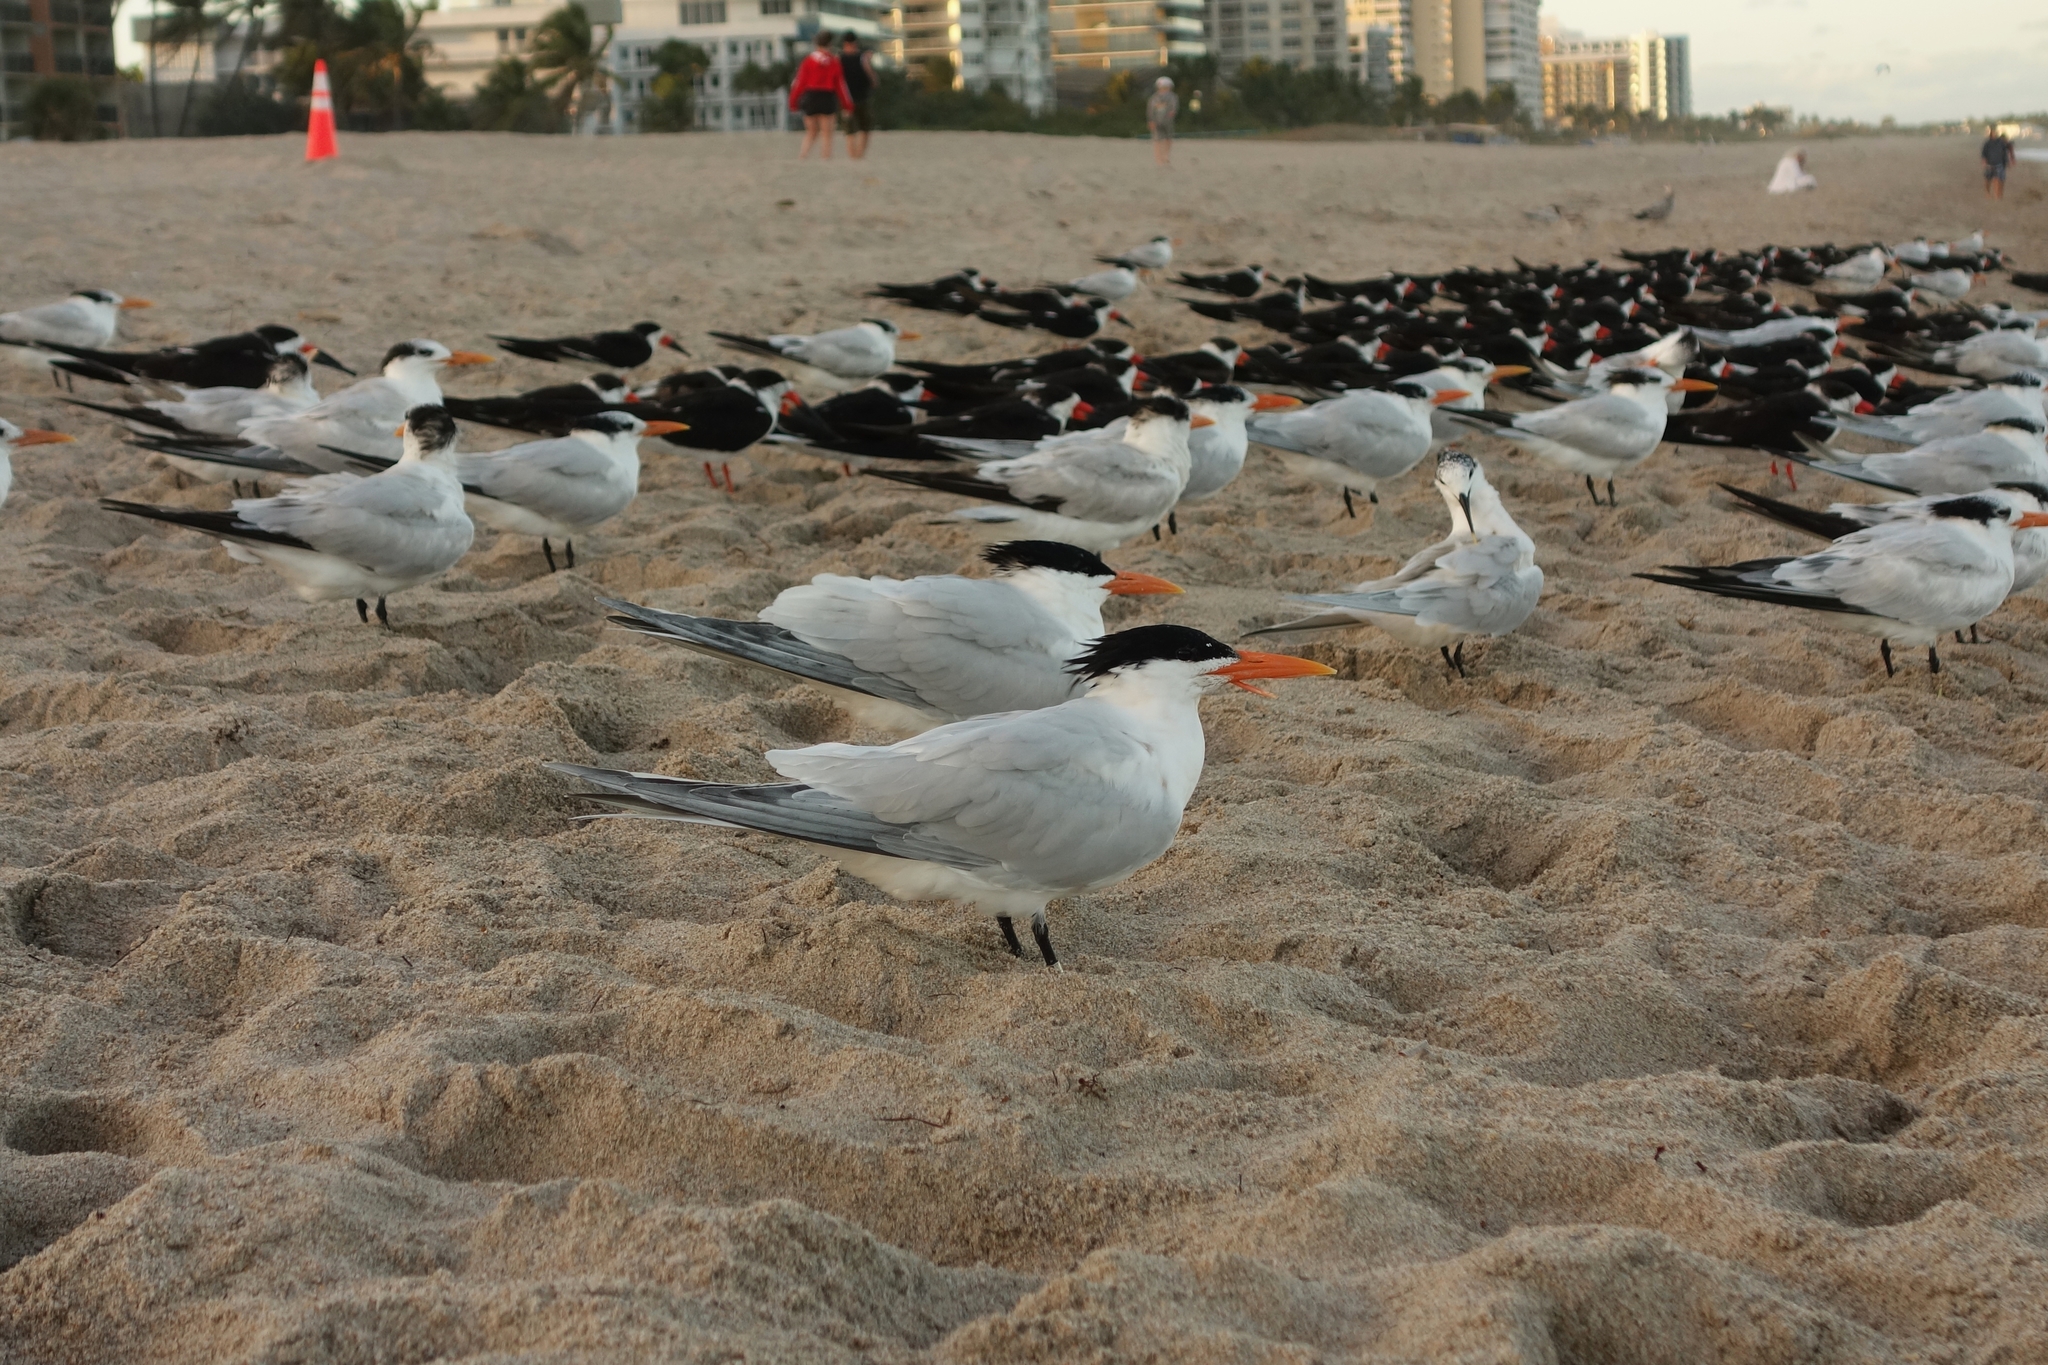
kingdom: Animalia
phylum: Chordata
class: Aves
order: Charadriiformes
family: Laridae
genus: Thalasseus
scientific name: Thalasseus maximus
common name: Royal tern
